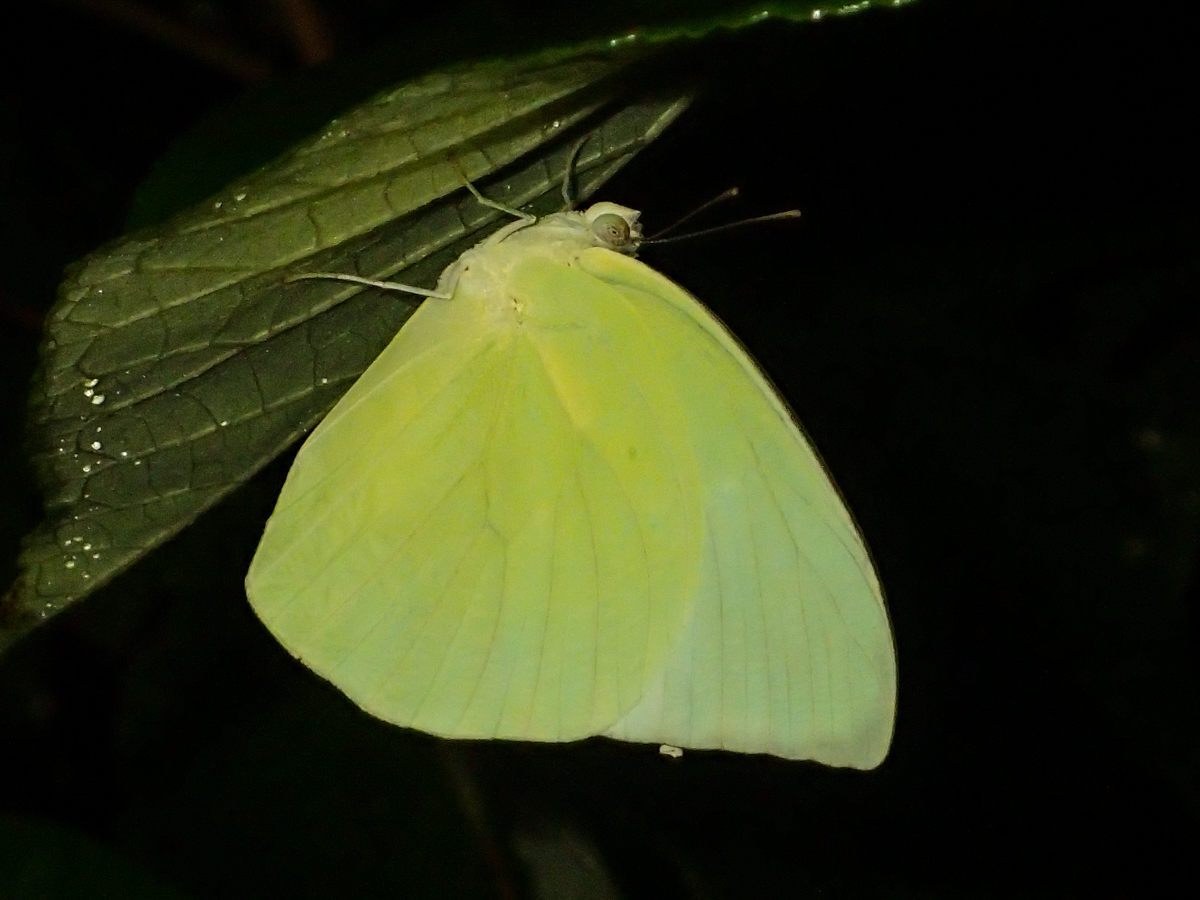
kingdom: Animalia
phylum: Arthropoda
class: Insecta
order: Lepidoptera
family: Pieridae
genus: Catopsilia
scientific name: Catopsilia pomona
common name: Common emigrant
